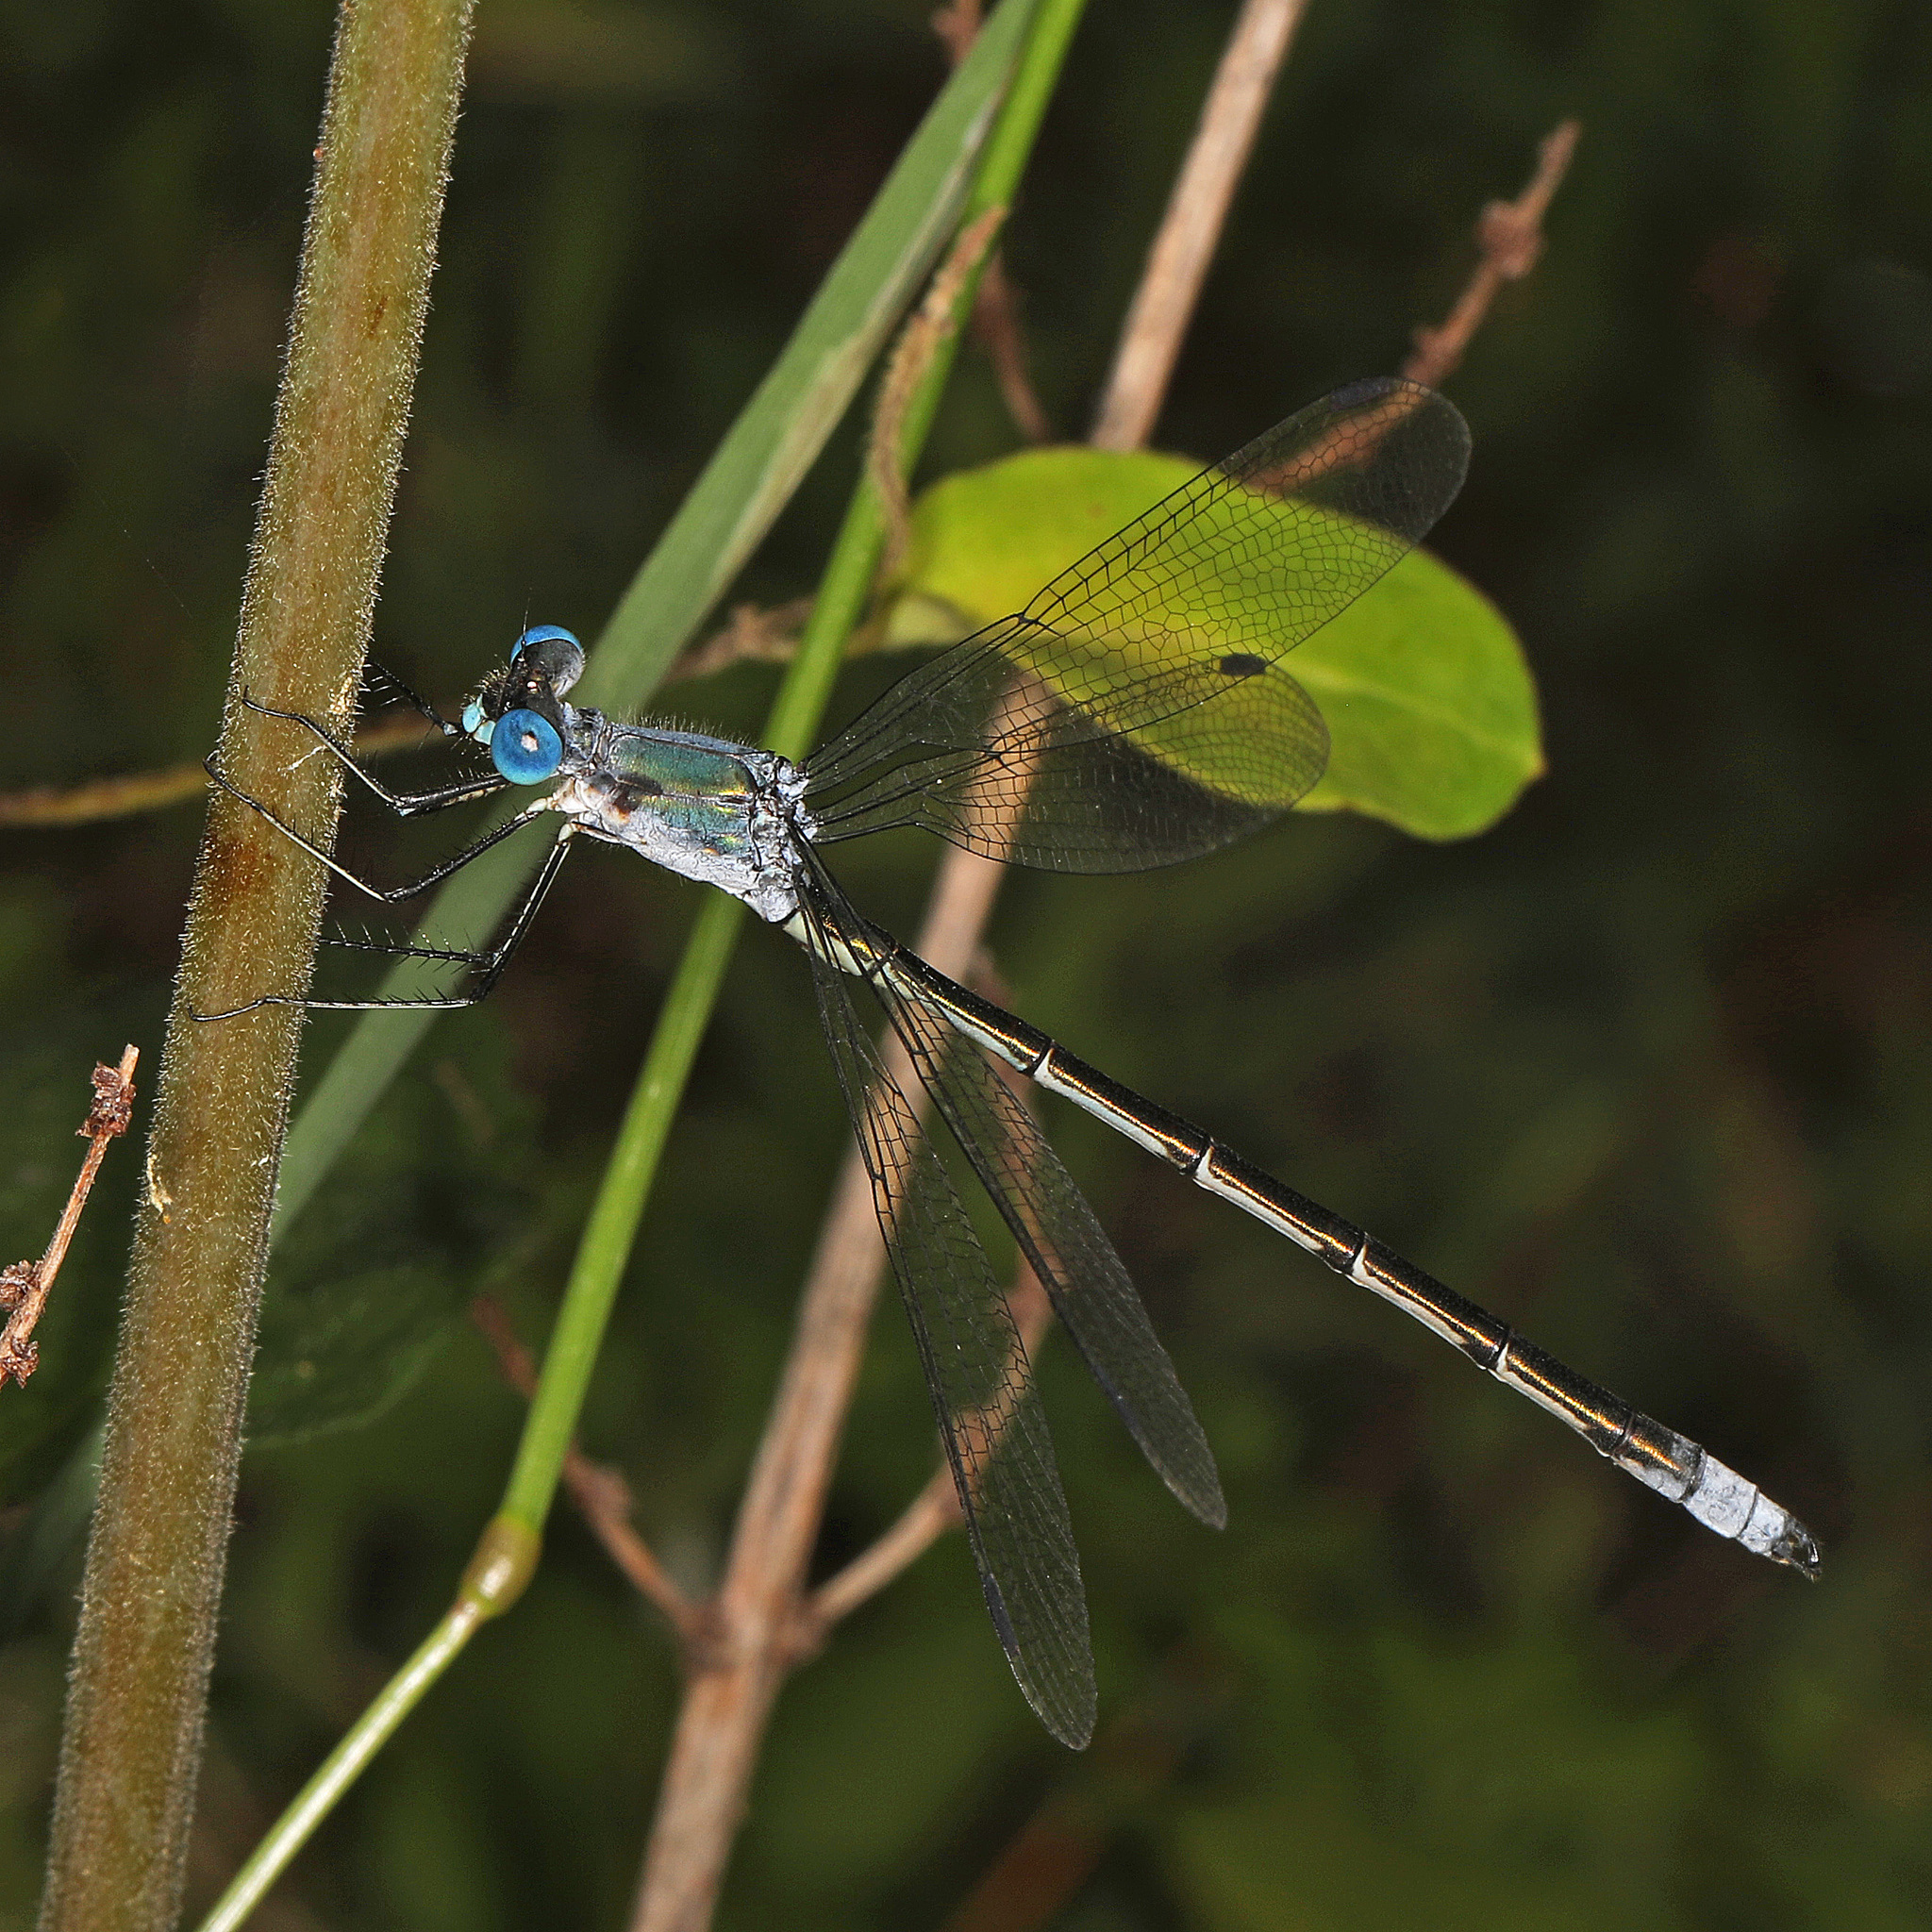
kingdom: Animalia
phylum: Arthropoda
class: Insecta
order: Odonata
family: Lestidae
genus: Lestes
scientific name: Lestes eurinus
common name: Amber-winged spreadwing
